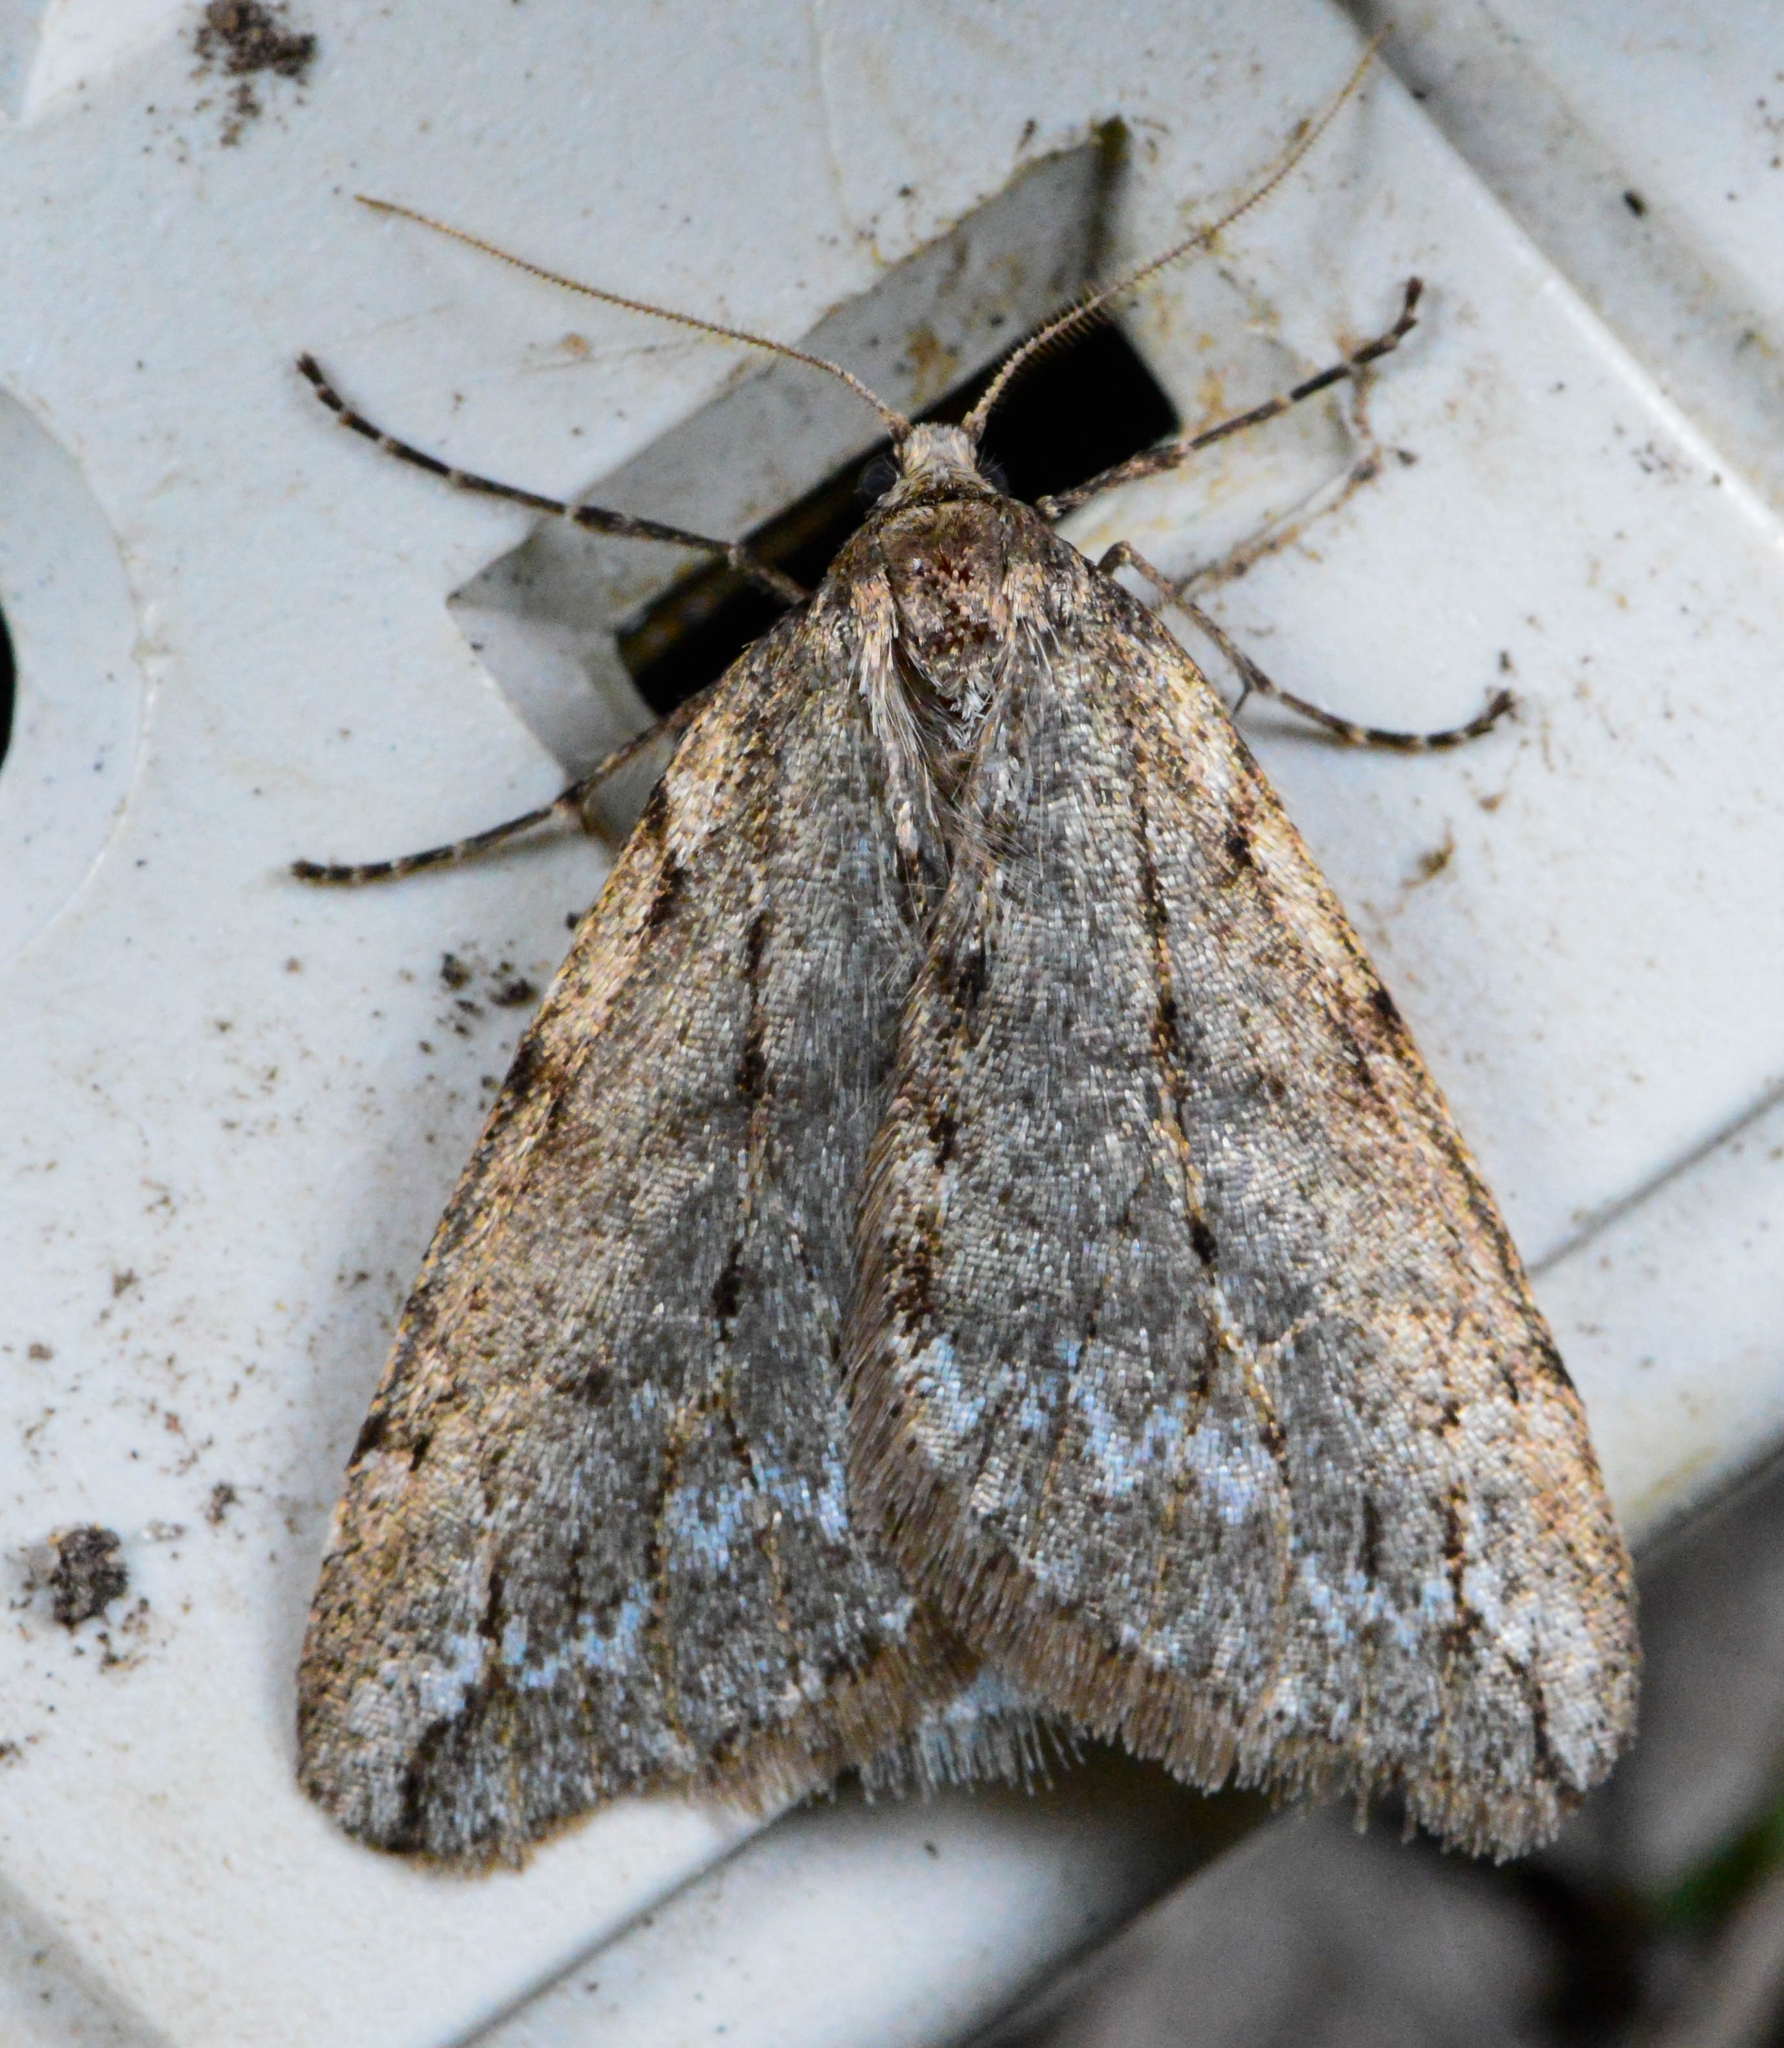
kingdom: Animalia
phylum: Arthropoda
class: Insecta
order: Lepidoptera
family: Geometridae
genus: Paleacrita
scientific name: Paleacrita vernata
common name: Spring cankerworm
